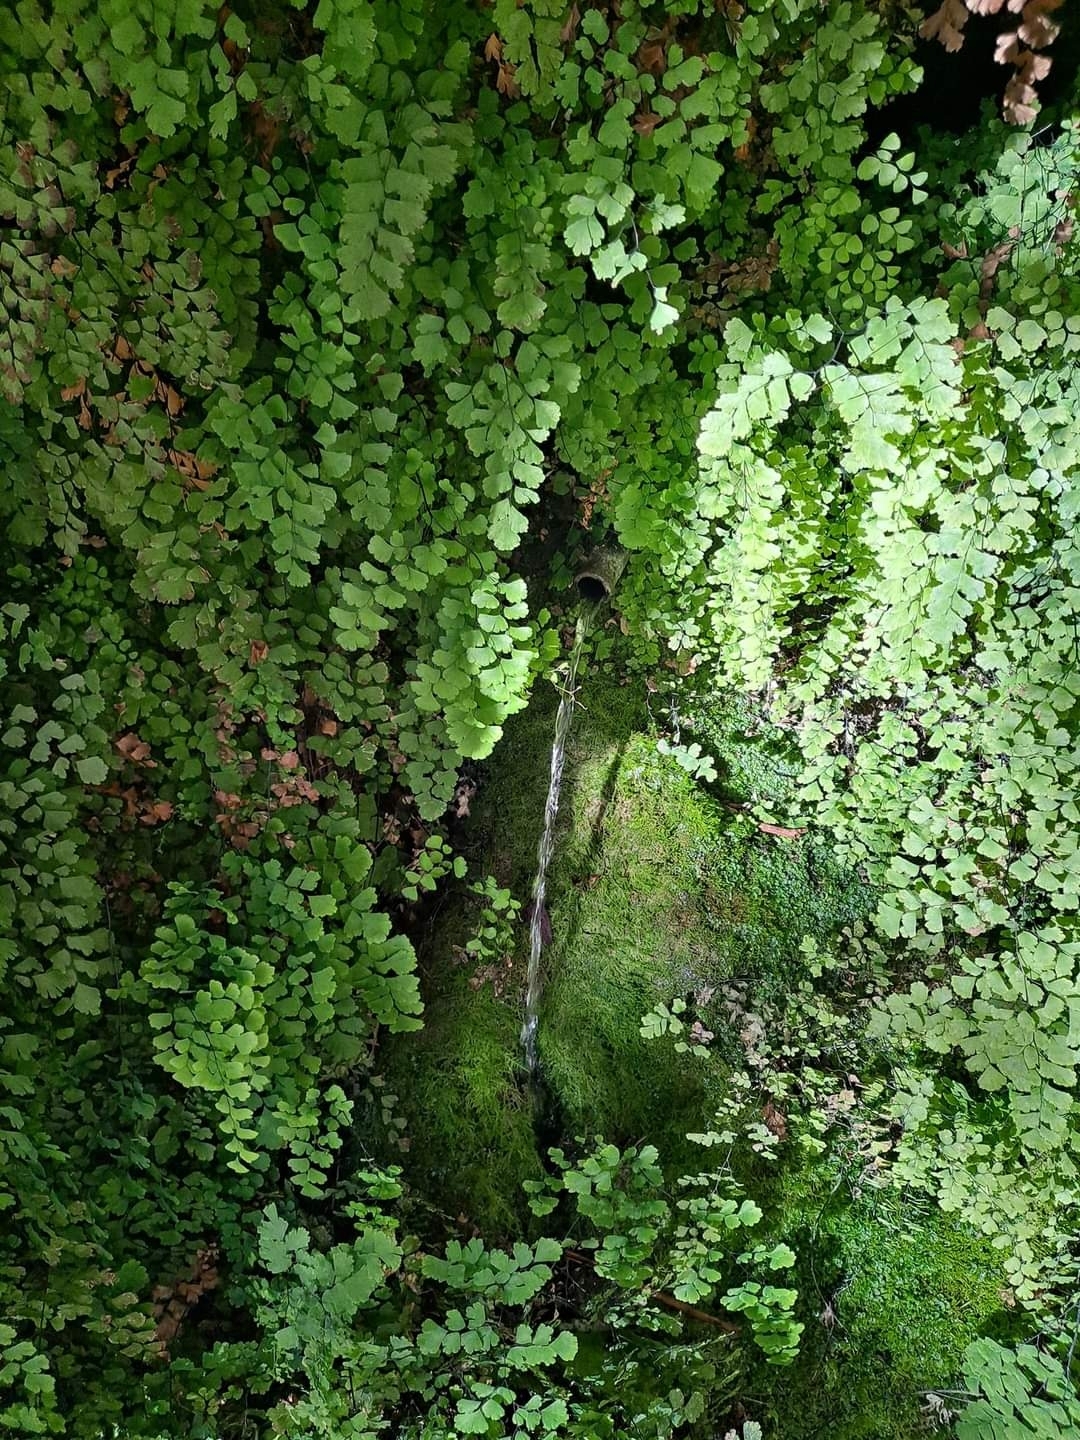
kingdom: Plantae
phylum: Tracheophyta
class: Polypodiopsida
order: Polypodiales
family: Pteridaceae
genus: Adiantum
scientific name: Adiantum capillus-veneris
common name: Maidenhair fern
